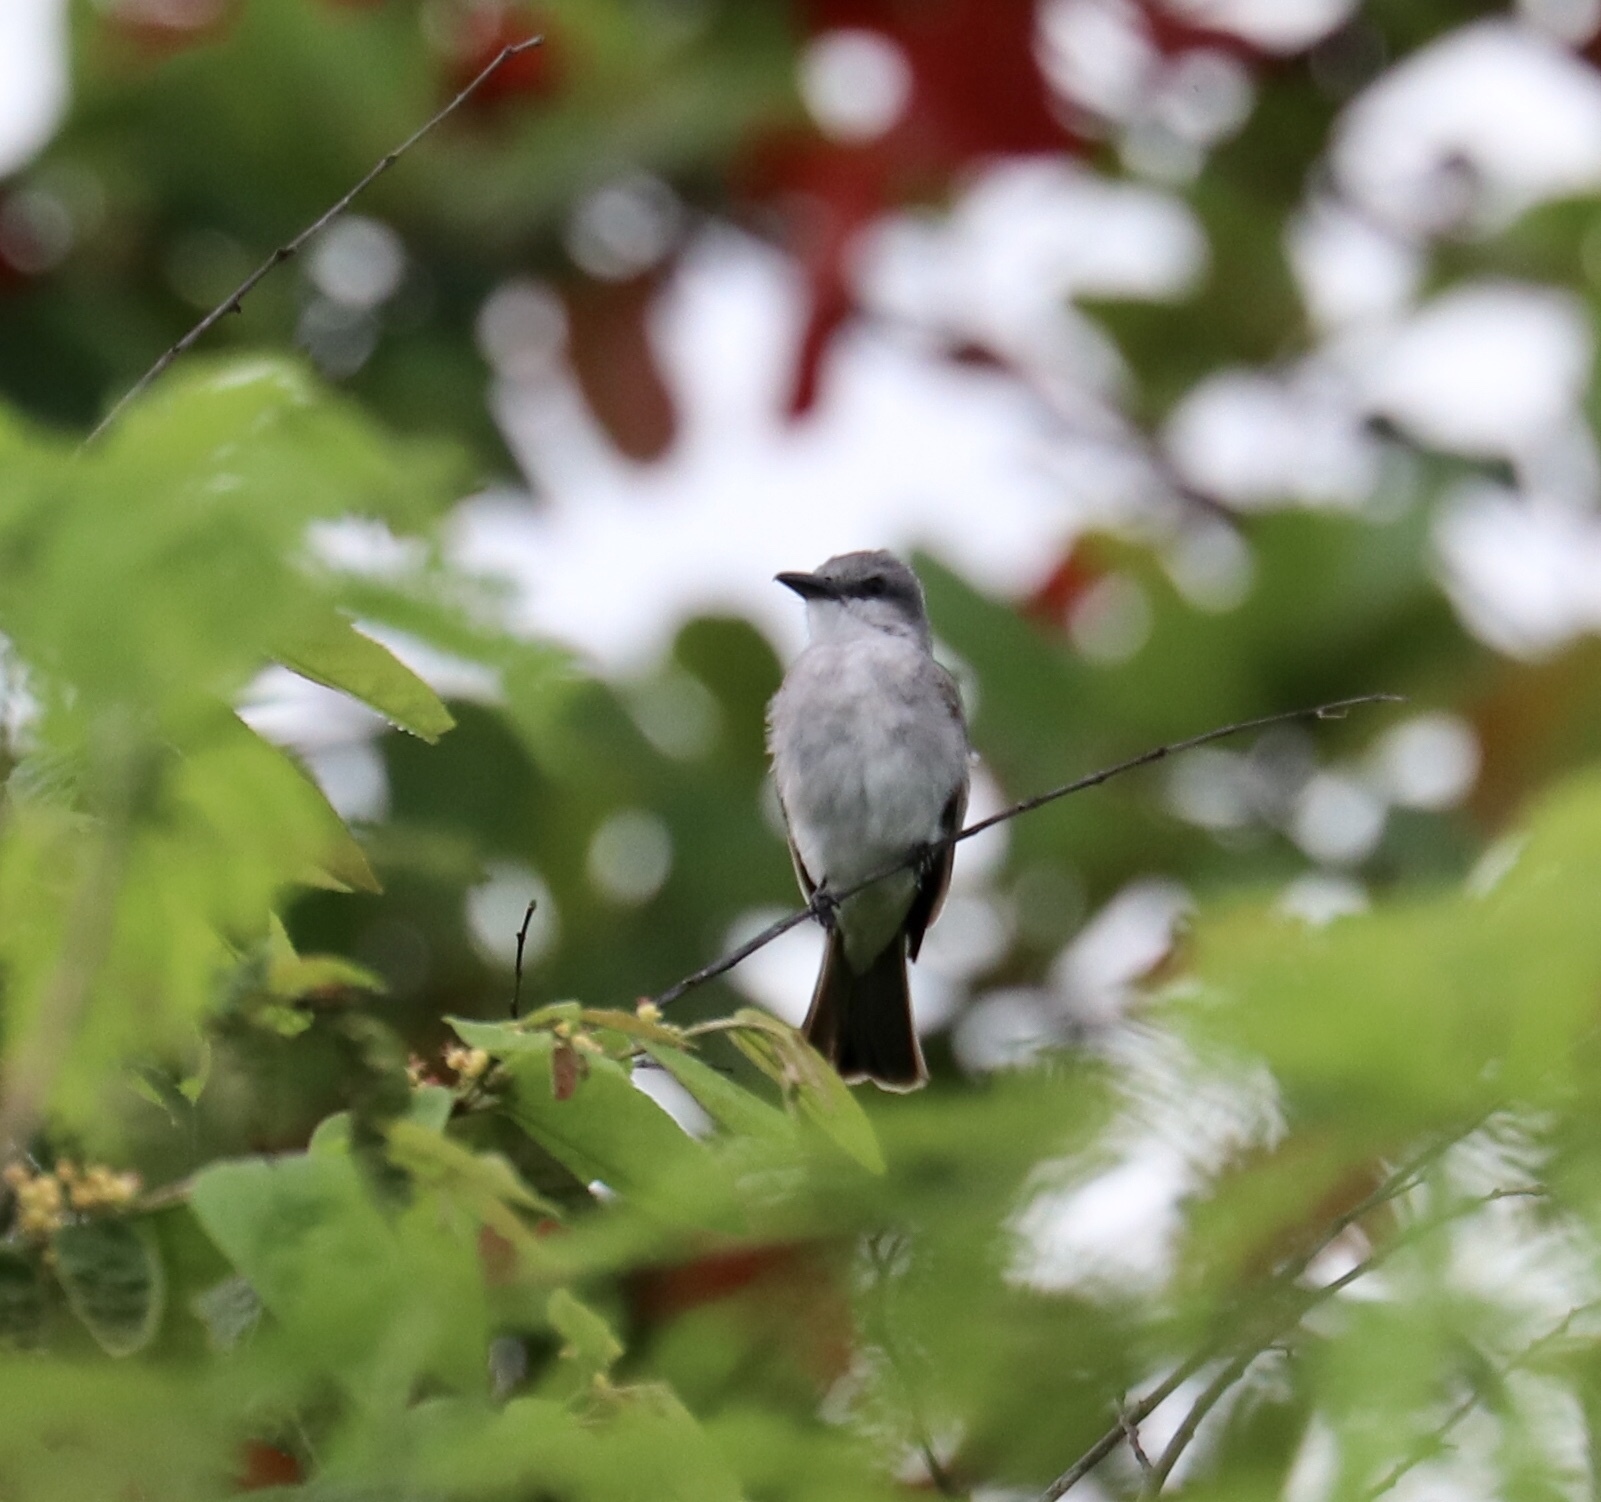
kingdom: Animalia
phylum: Chordata
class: Aves
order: Passeriformes
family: Tyrannidae
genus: Tyrannus
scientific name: Tyrannus dominicensis
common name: Gray kingbird
